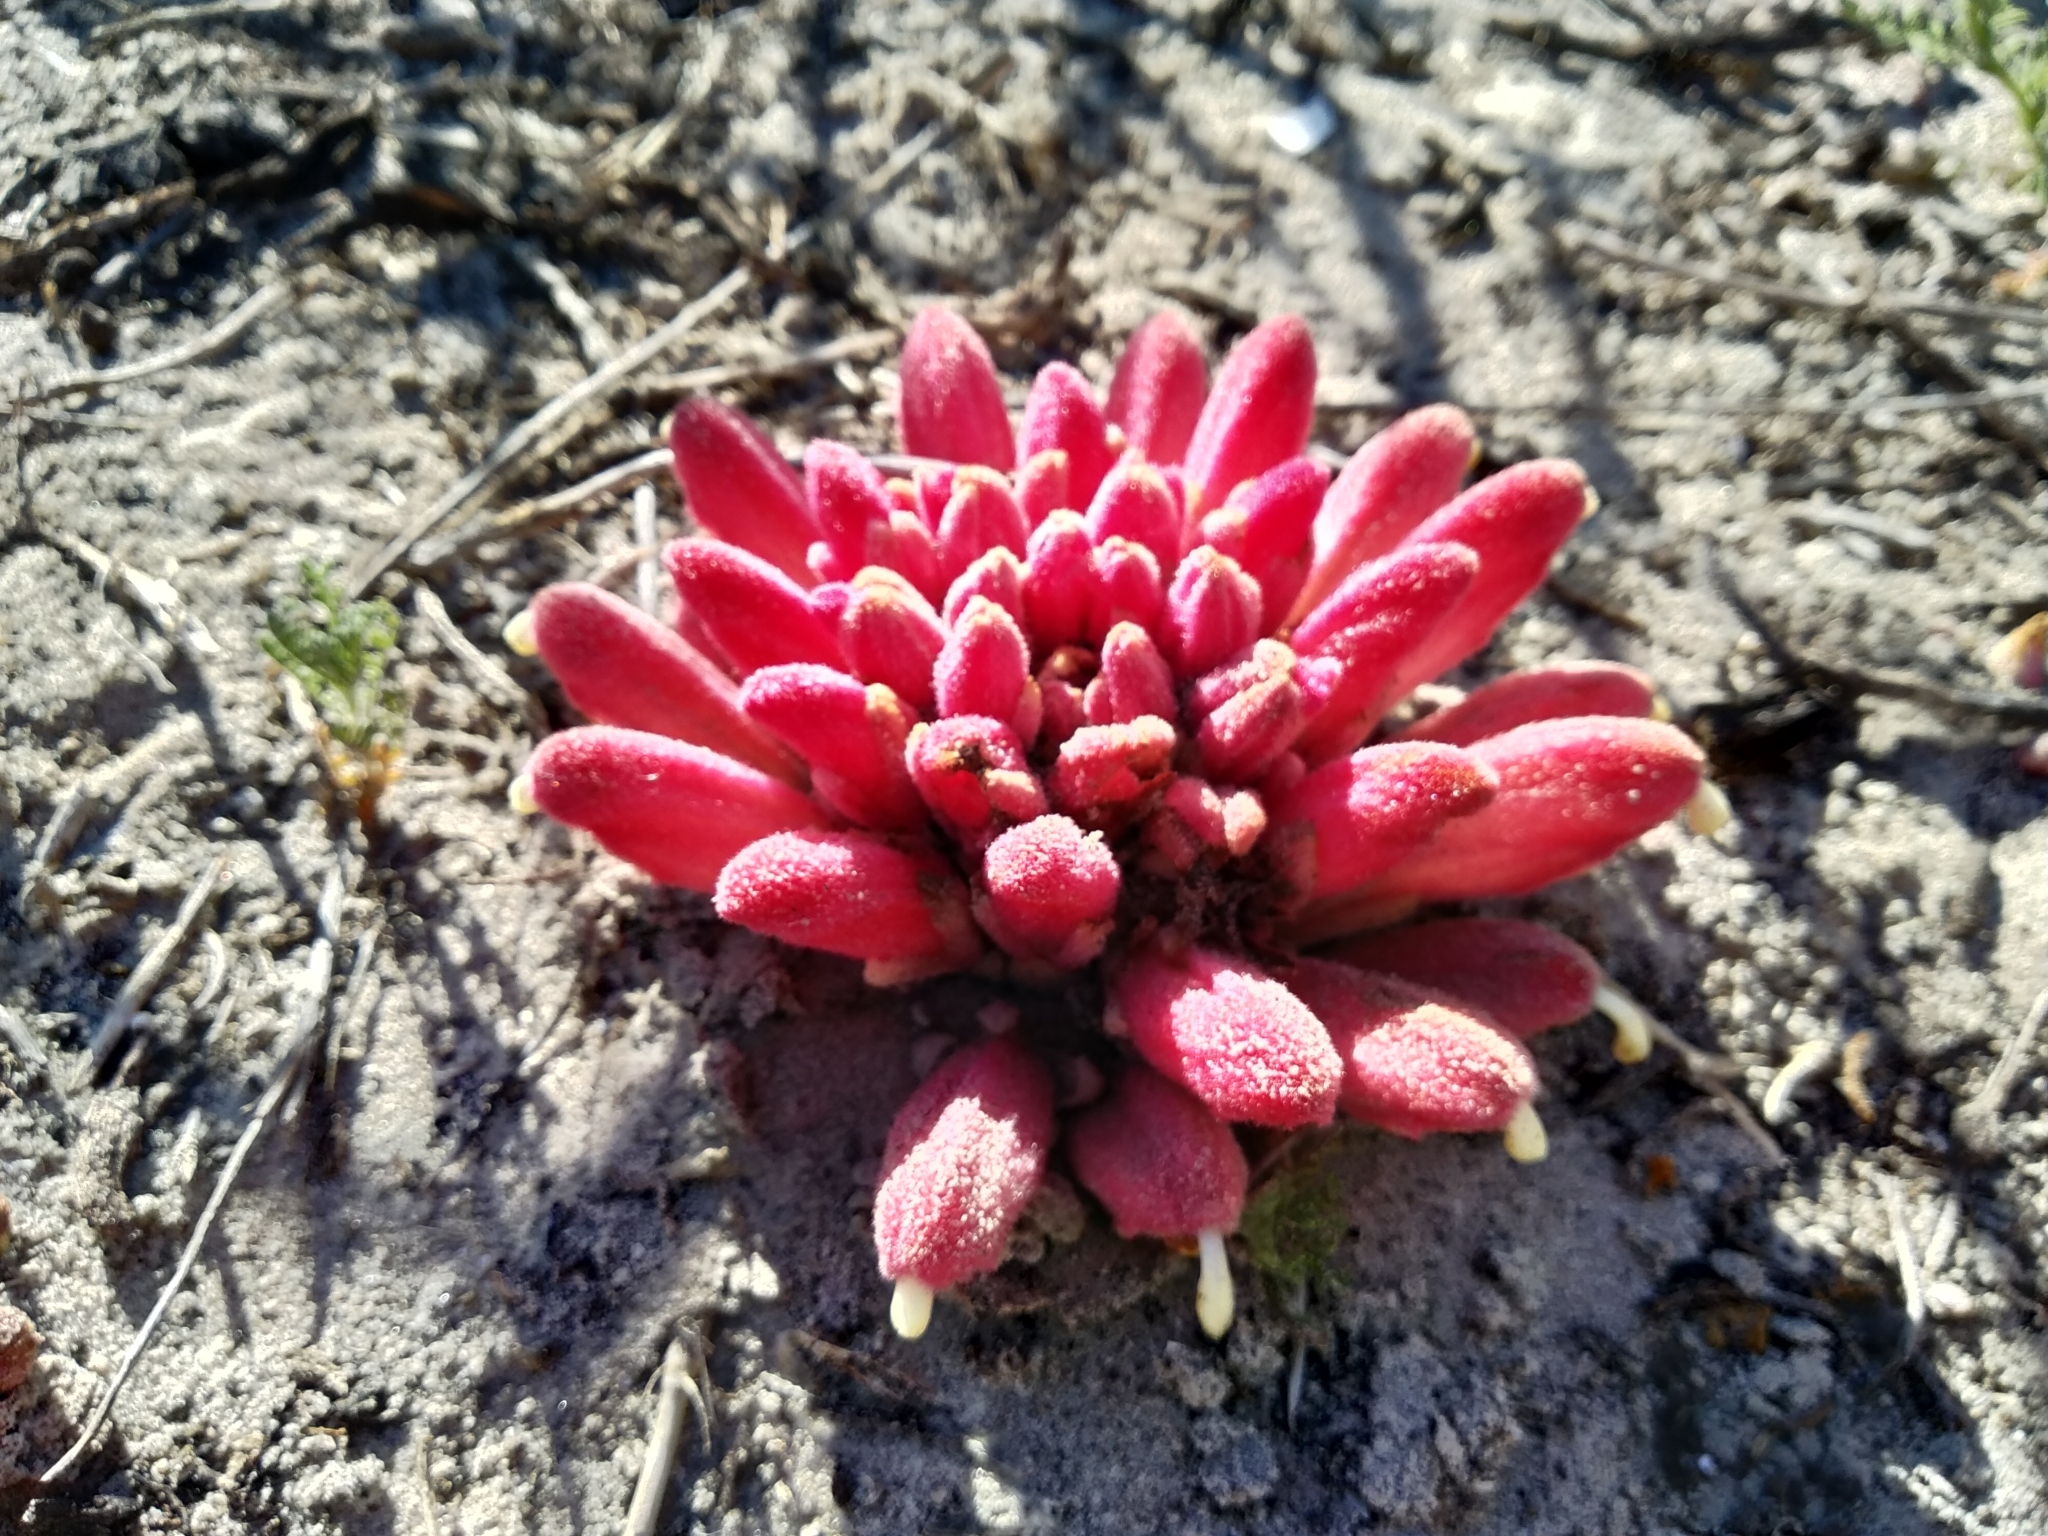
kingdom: Plantae
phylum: Tracheophyta
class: Magnoliopsida
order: Lamiales
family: Orobanchaceae
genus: Hyobanche
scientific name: Hyobanche sanguinea
